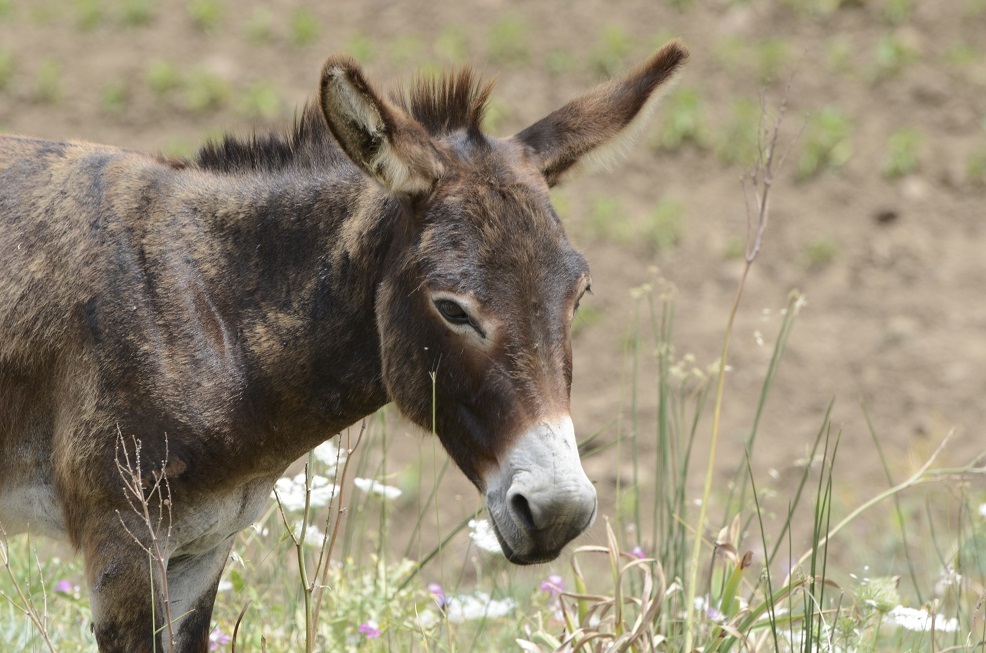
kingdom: Animalia
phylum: Chordata
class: Mammalia
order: Perissodactyla
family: Equidae
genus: Equus
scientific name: Equus asinus
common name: Ass
